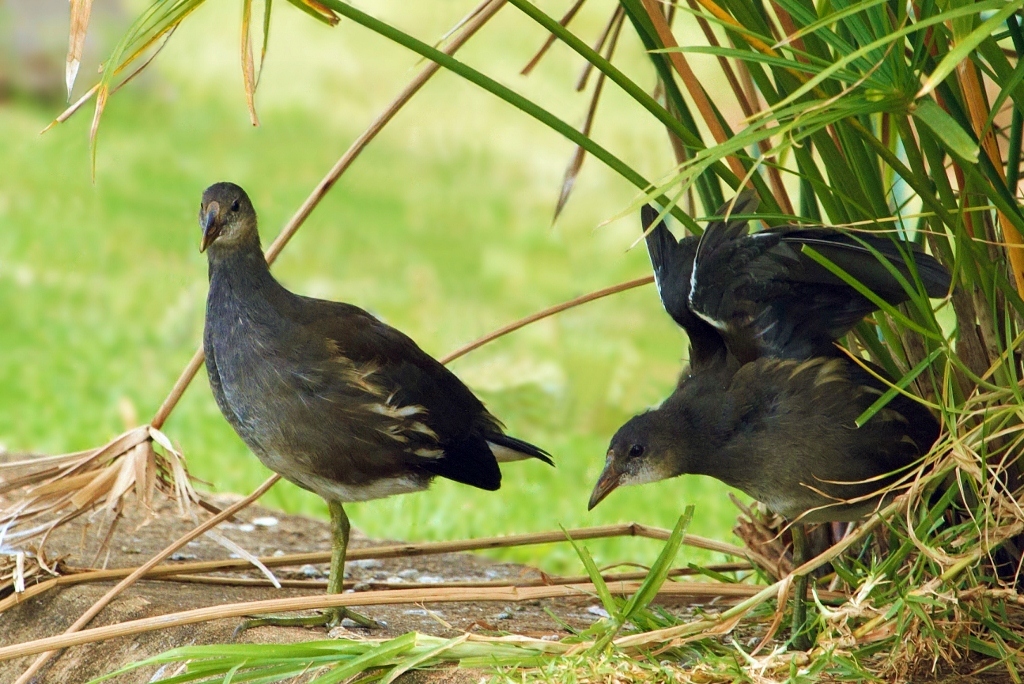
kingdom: Animalia
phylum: Chordata
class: Aves
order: Gruiformes
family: Rallidae
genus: Gallinula
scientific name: Gallinula chloropus
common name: Common moorhen
